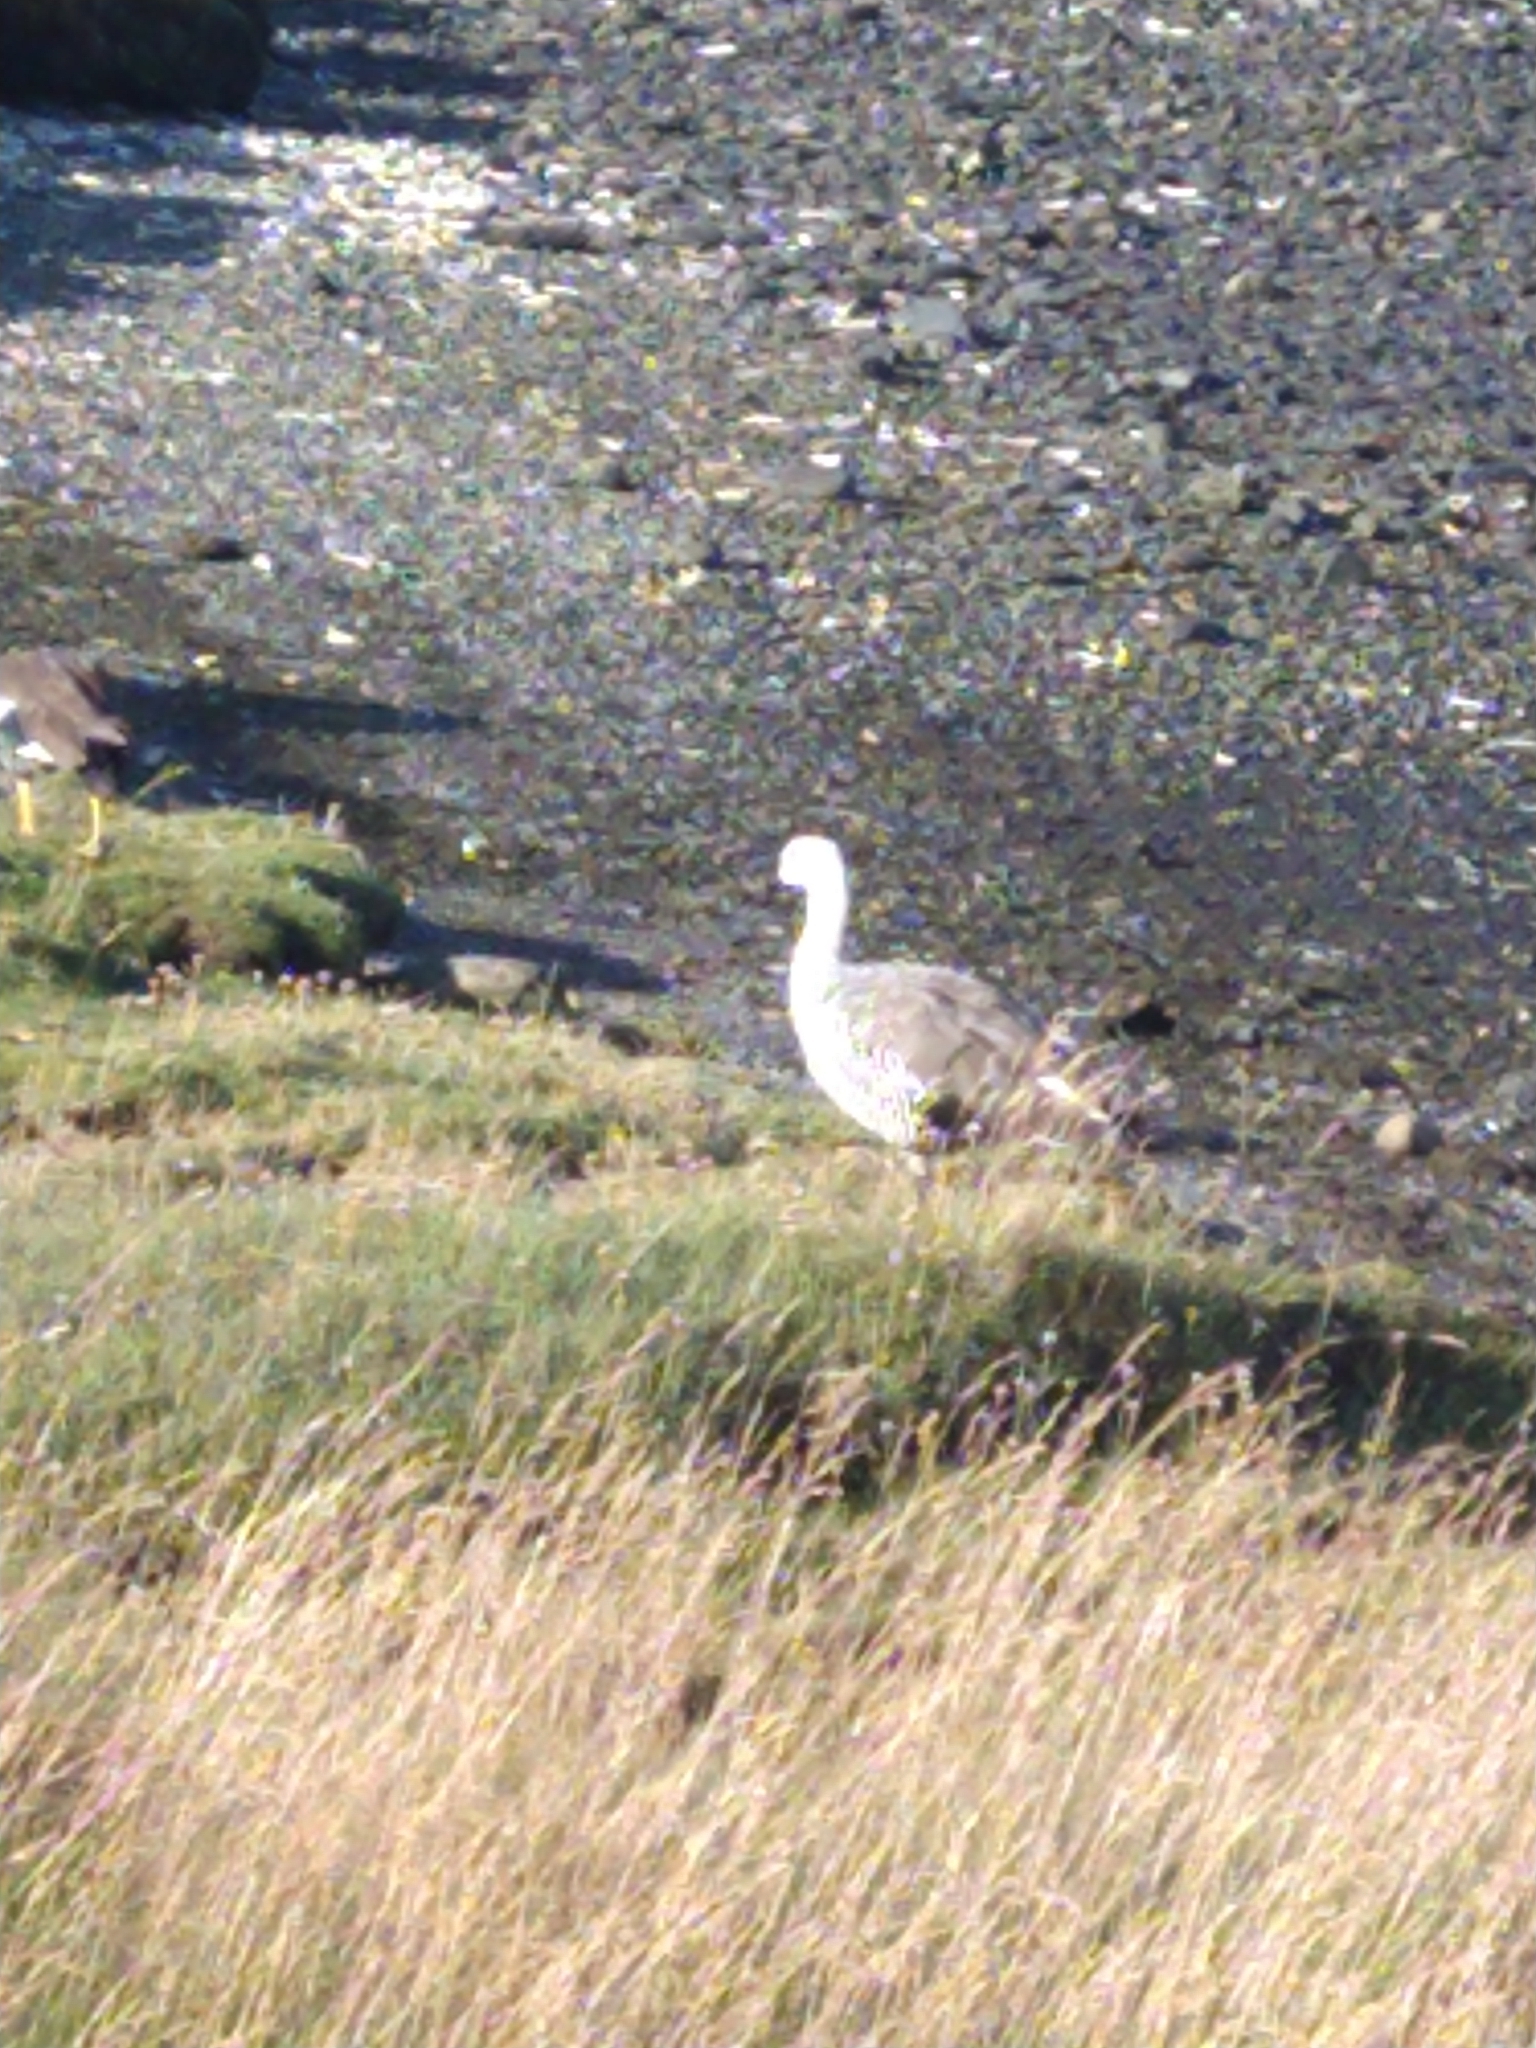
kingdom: Animalia
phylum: Chordata
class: Aves
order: Anseriformes
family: Anatidae
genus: Chloephaga
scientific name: Chloephaga picta
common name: Upland goose
